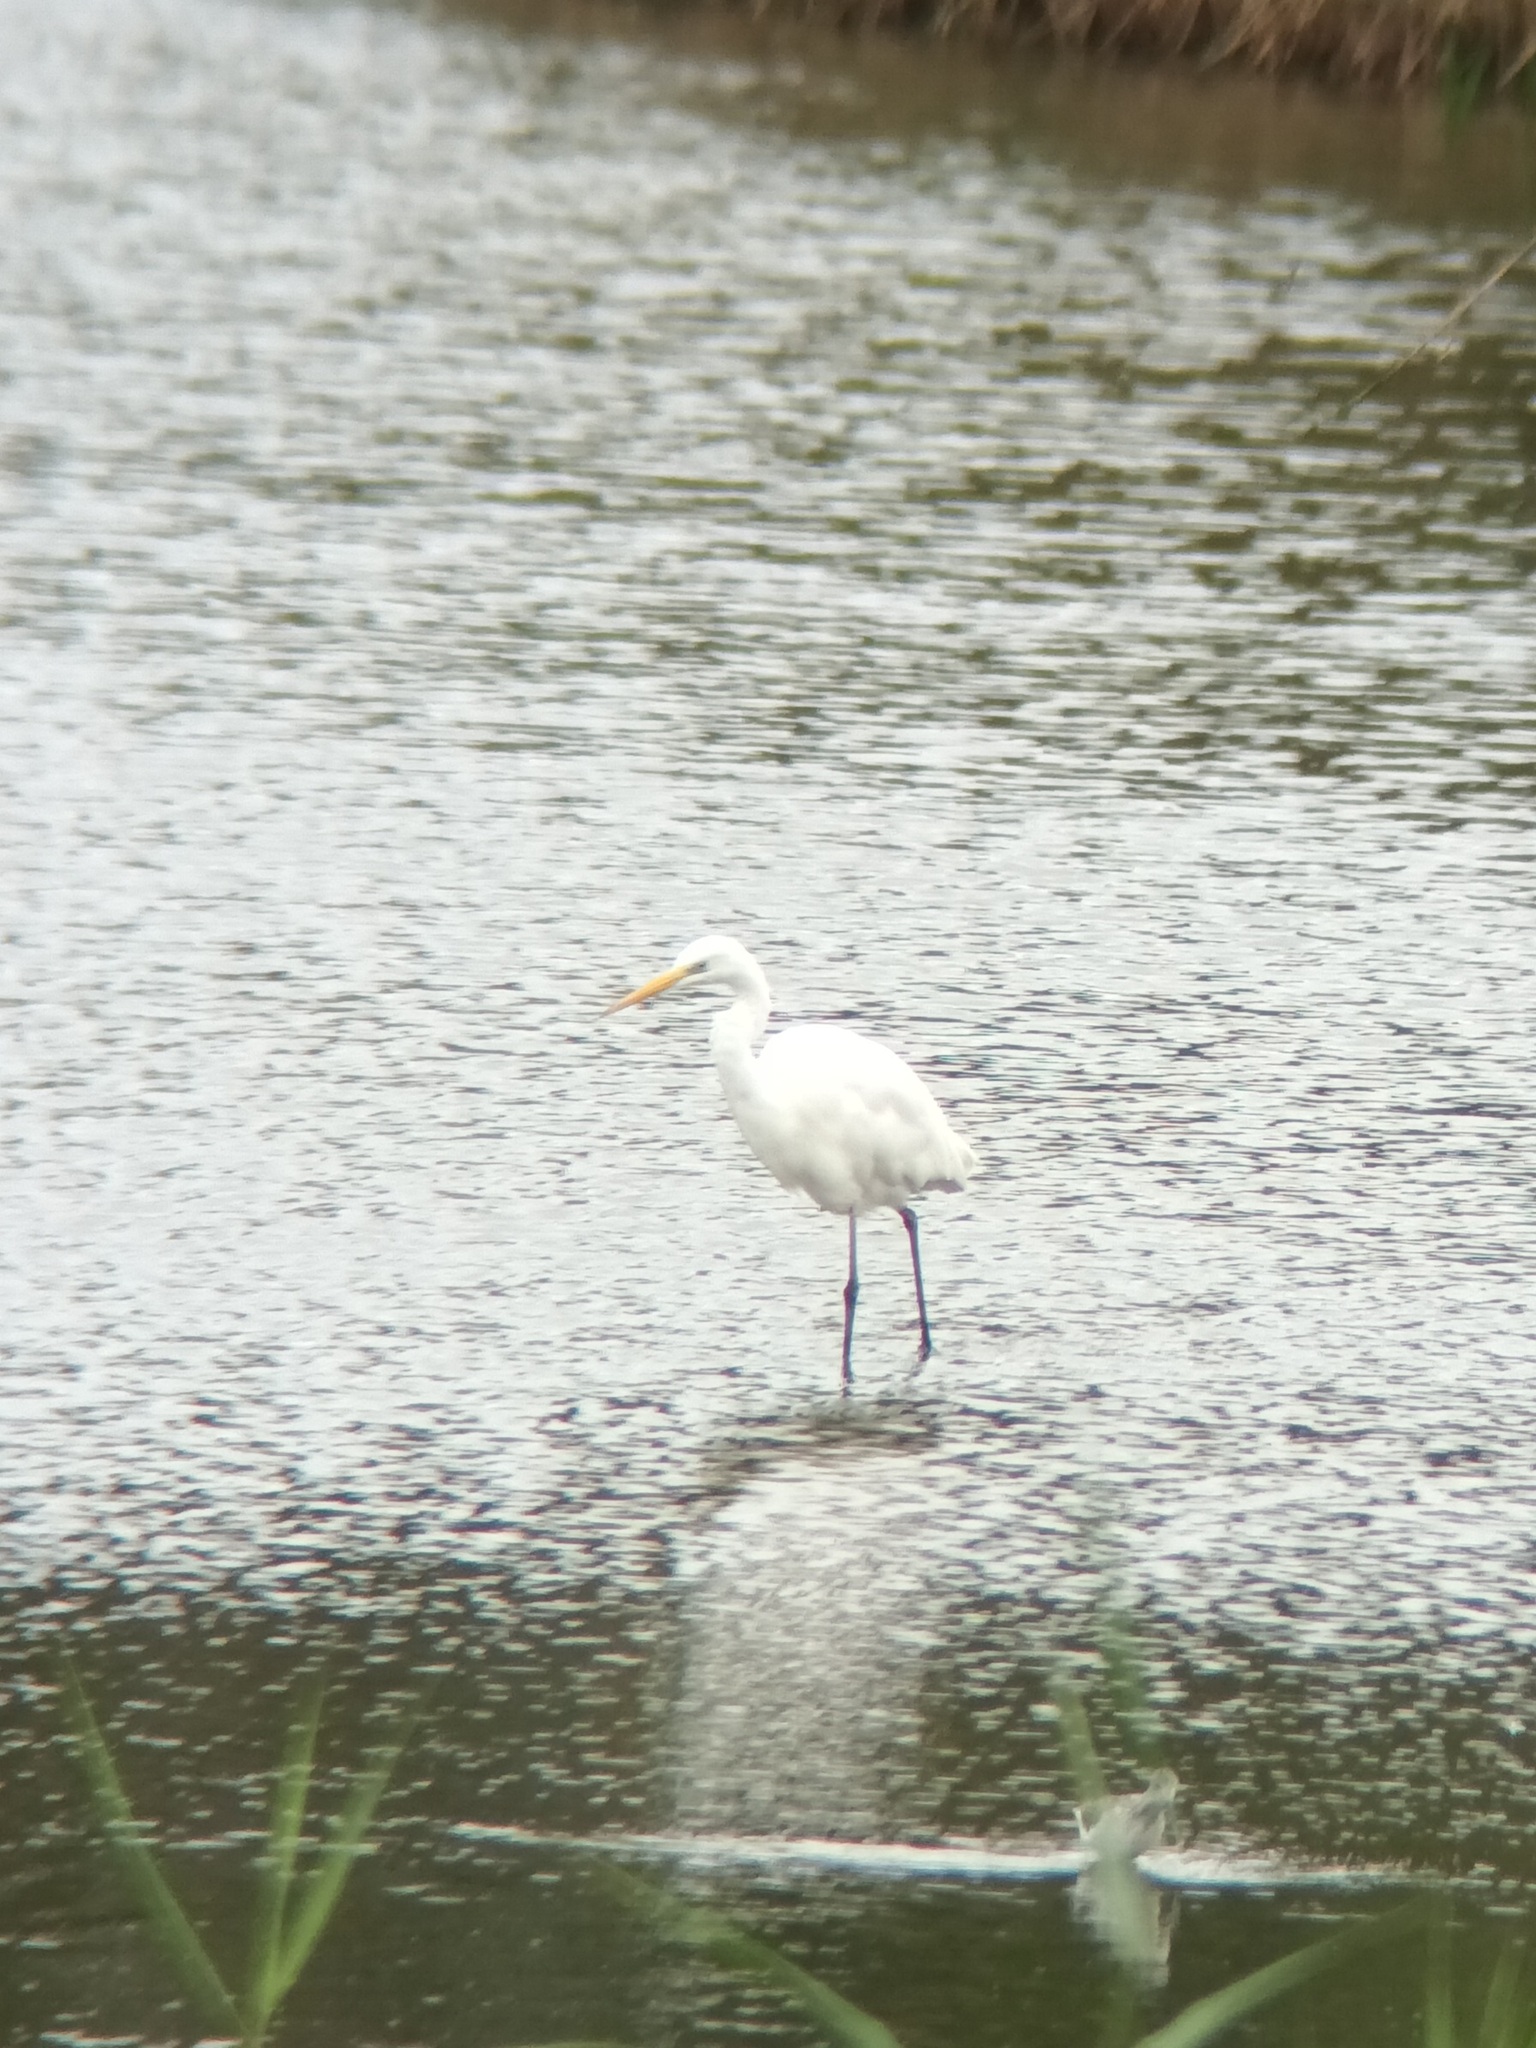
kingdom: Animalia
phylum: Chordata
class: Aves
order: Pelecaniformes
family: Ardeidae
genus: Ardea
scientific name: Ardea alba
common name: Great egret
